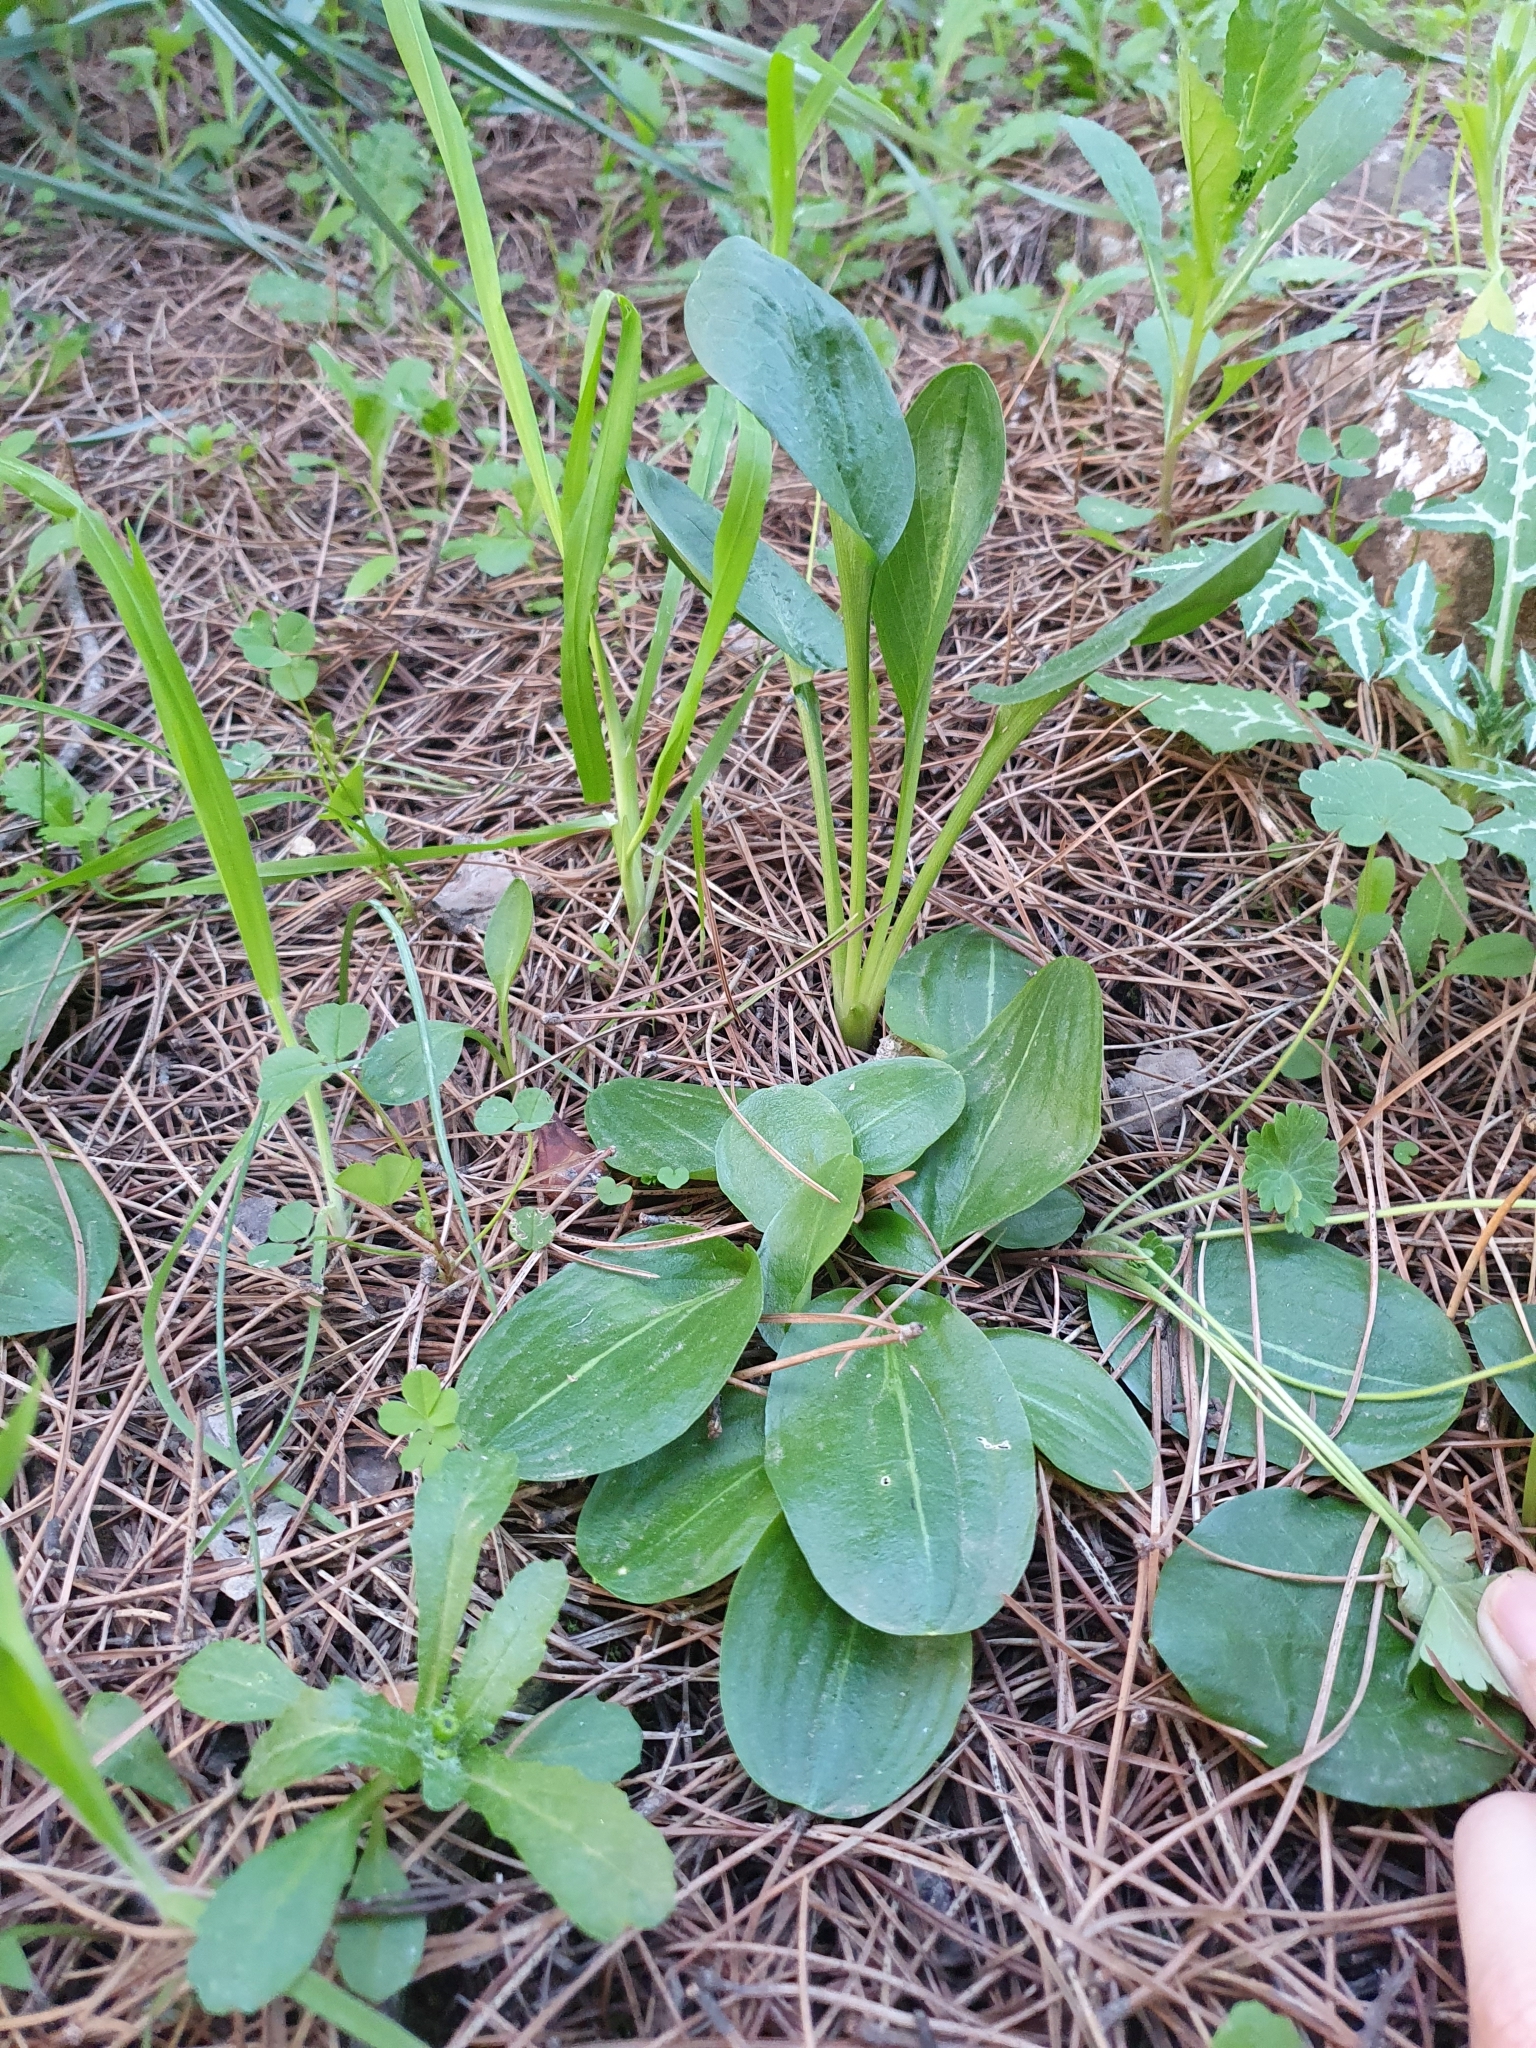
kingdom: Plantae
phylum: Tracheophyta
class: Liliopsida
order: Alismatales
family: Araceae
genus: Biarum
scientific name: Biarum dispar
